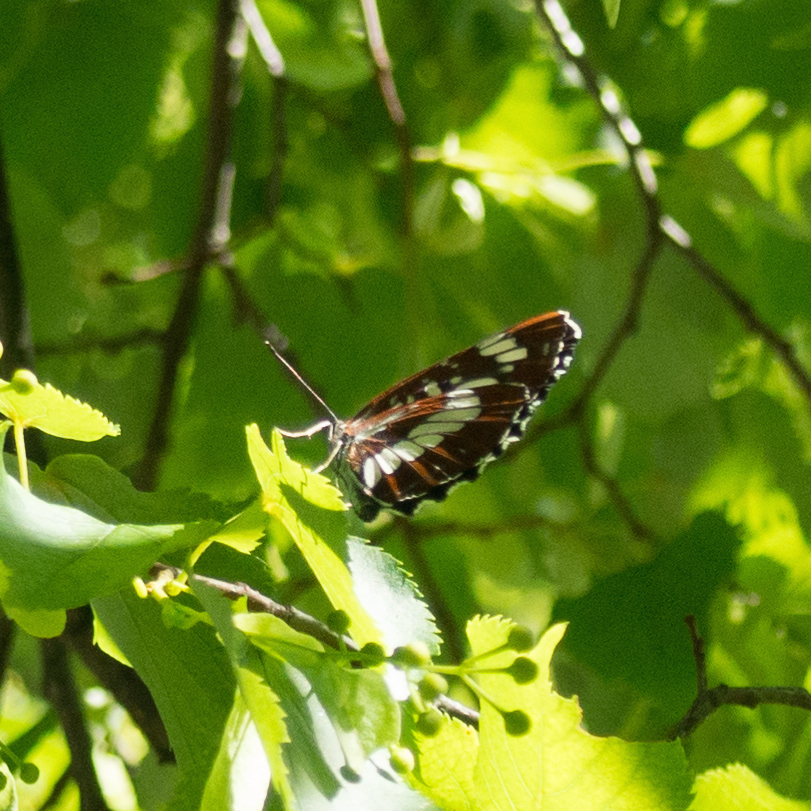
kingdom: Animalia
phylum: Arthropoda
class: Insecta
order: Lepidoptera
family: Nymphalidae
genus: Neptis
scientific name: Neptis rivularis
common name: Hungarian glider
